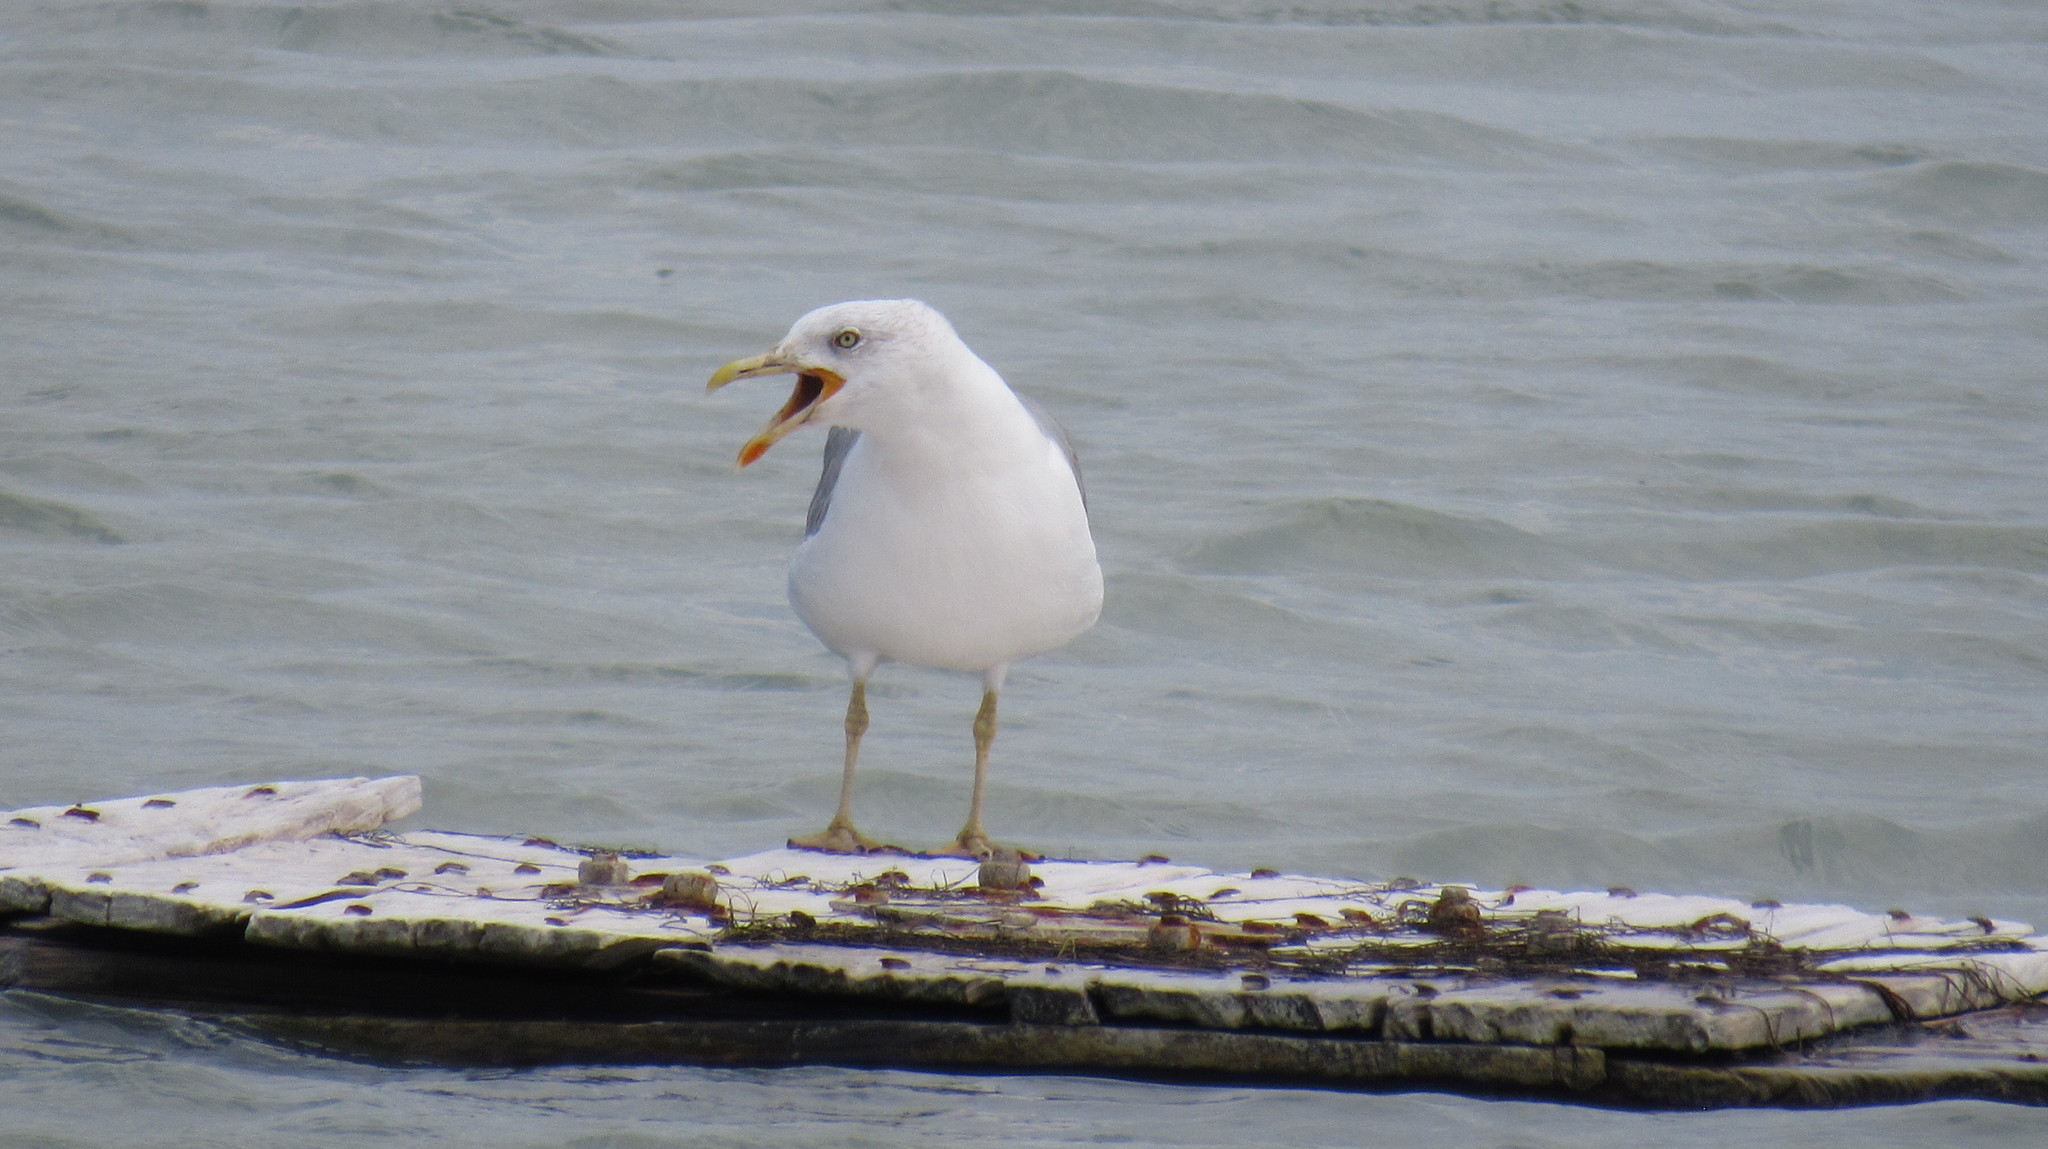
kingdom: Animalia
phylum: Chordata
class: Aves
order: Charadriiformes
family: Laridae
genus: Larus
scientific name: Larus michahellis
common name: Yellow-legged gull
